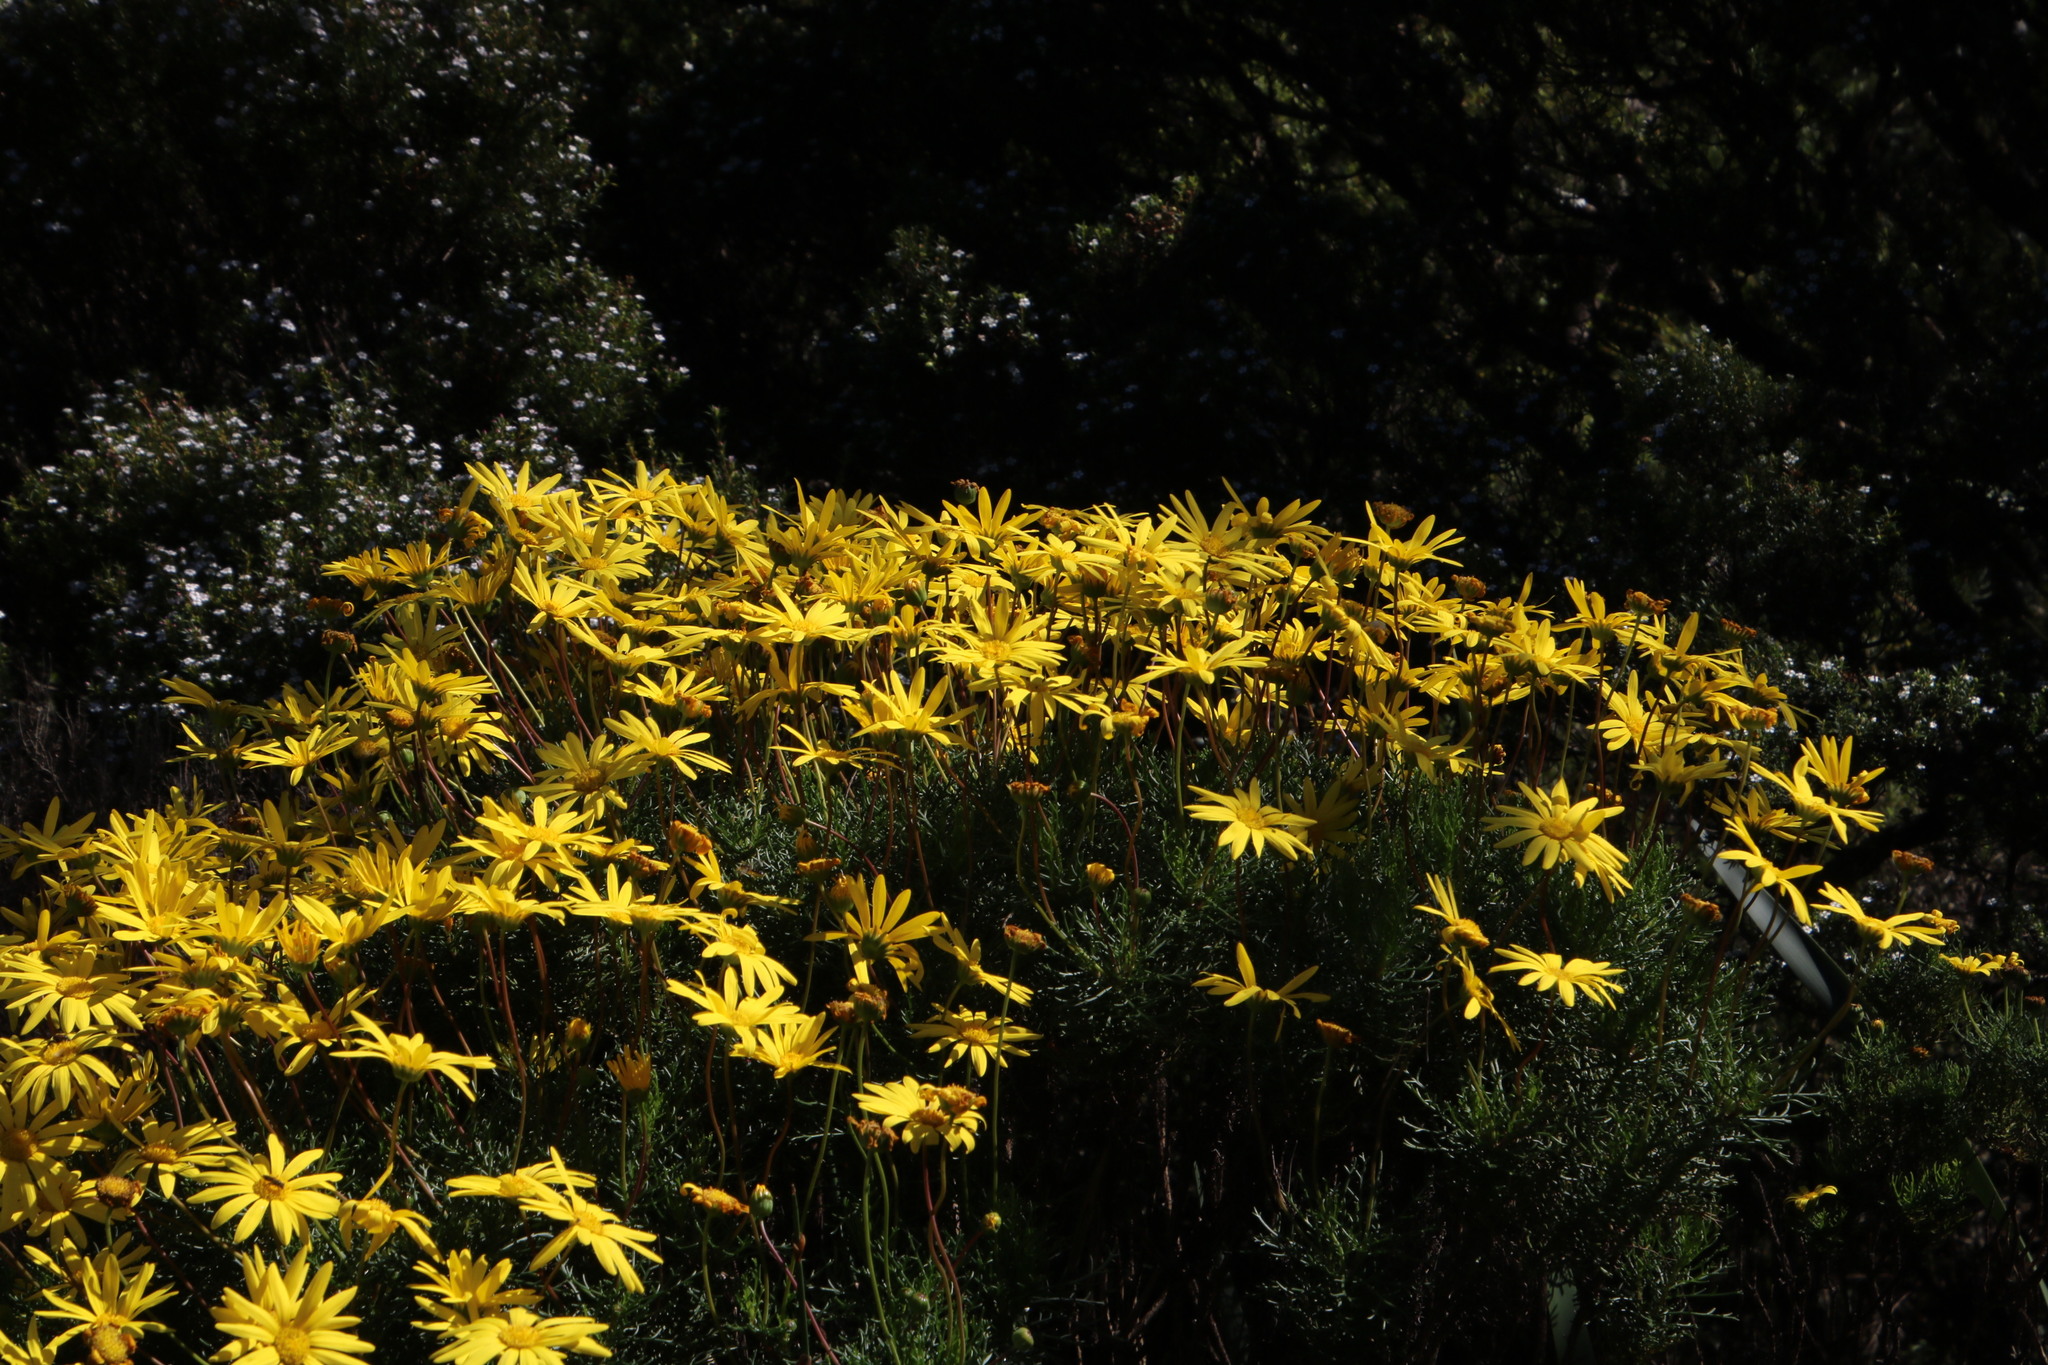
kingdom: Plantae
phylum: Tracheophyta
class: Magnoliopsida
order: Asterales
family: Asteraceae
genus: Euryops
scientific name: Euryops abrotanifolius
